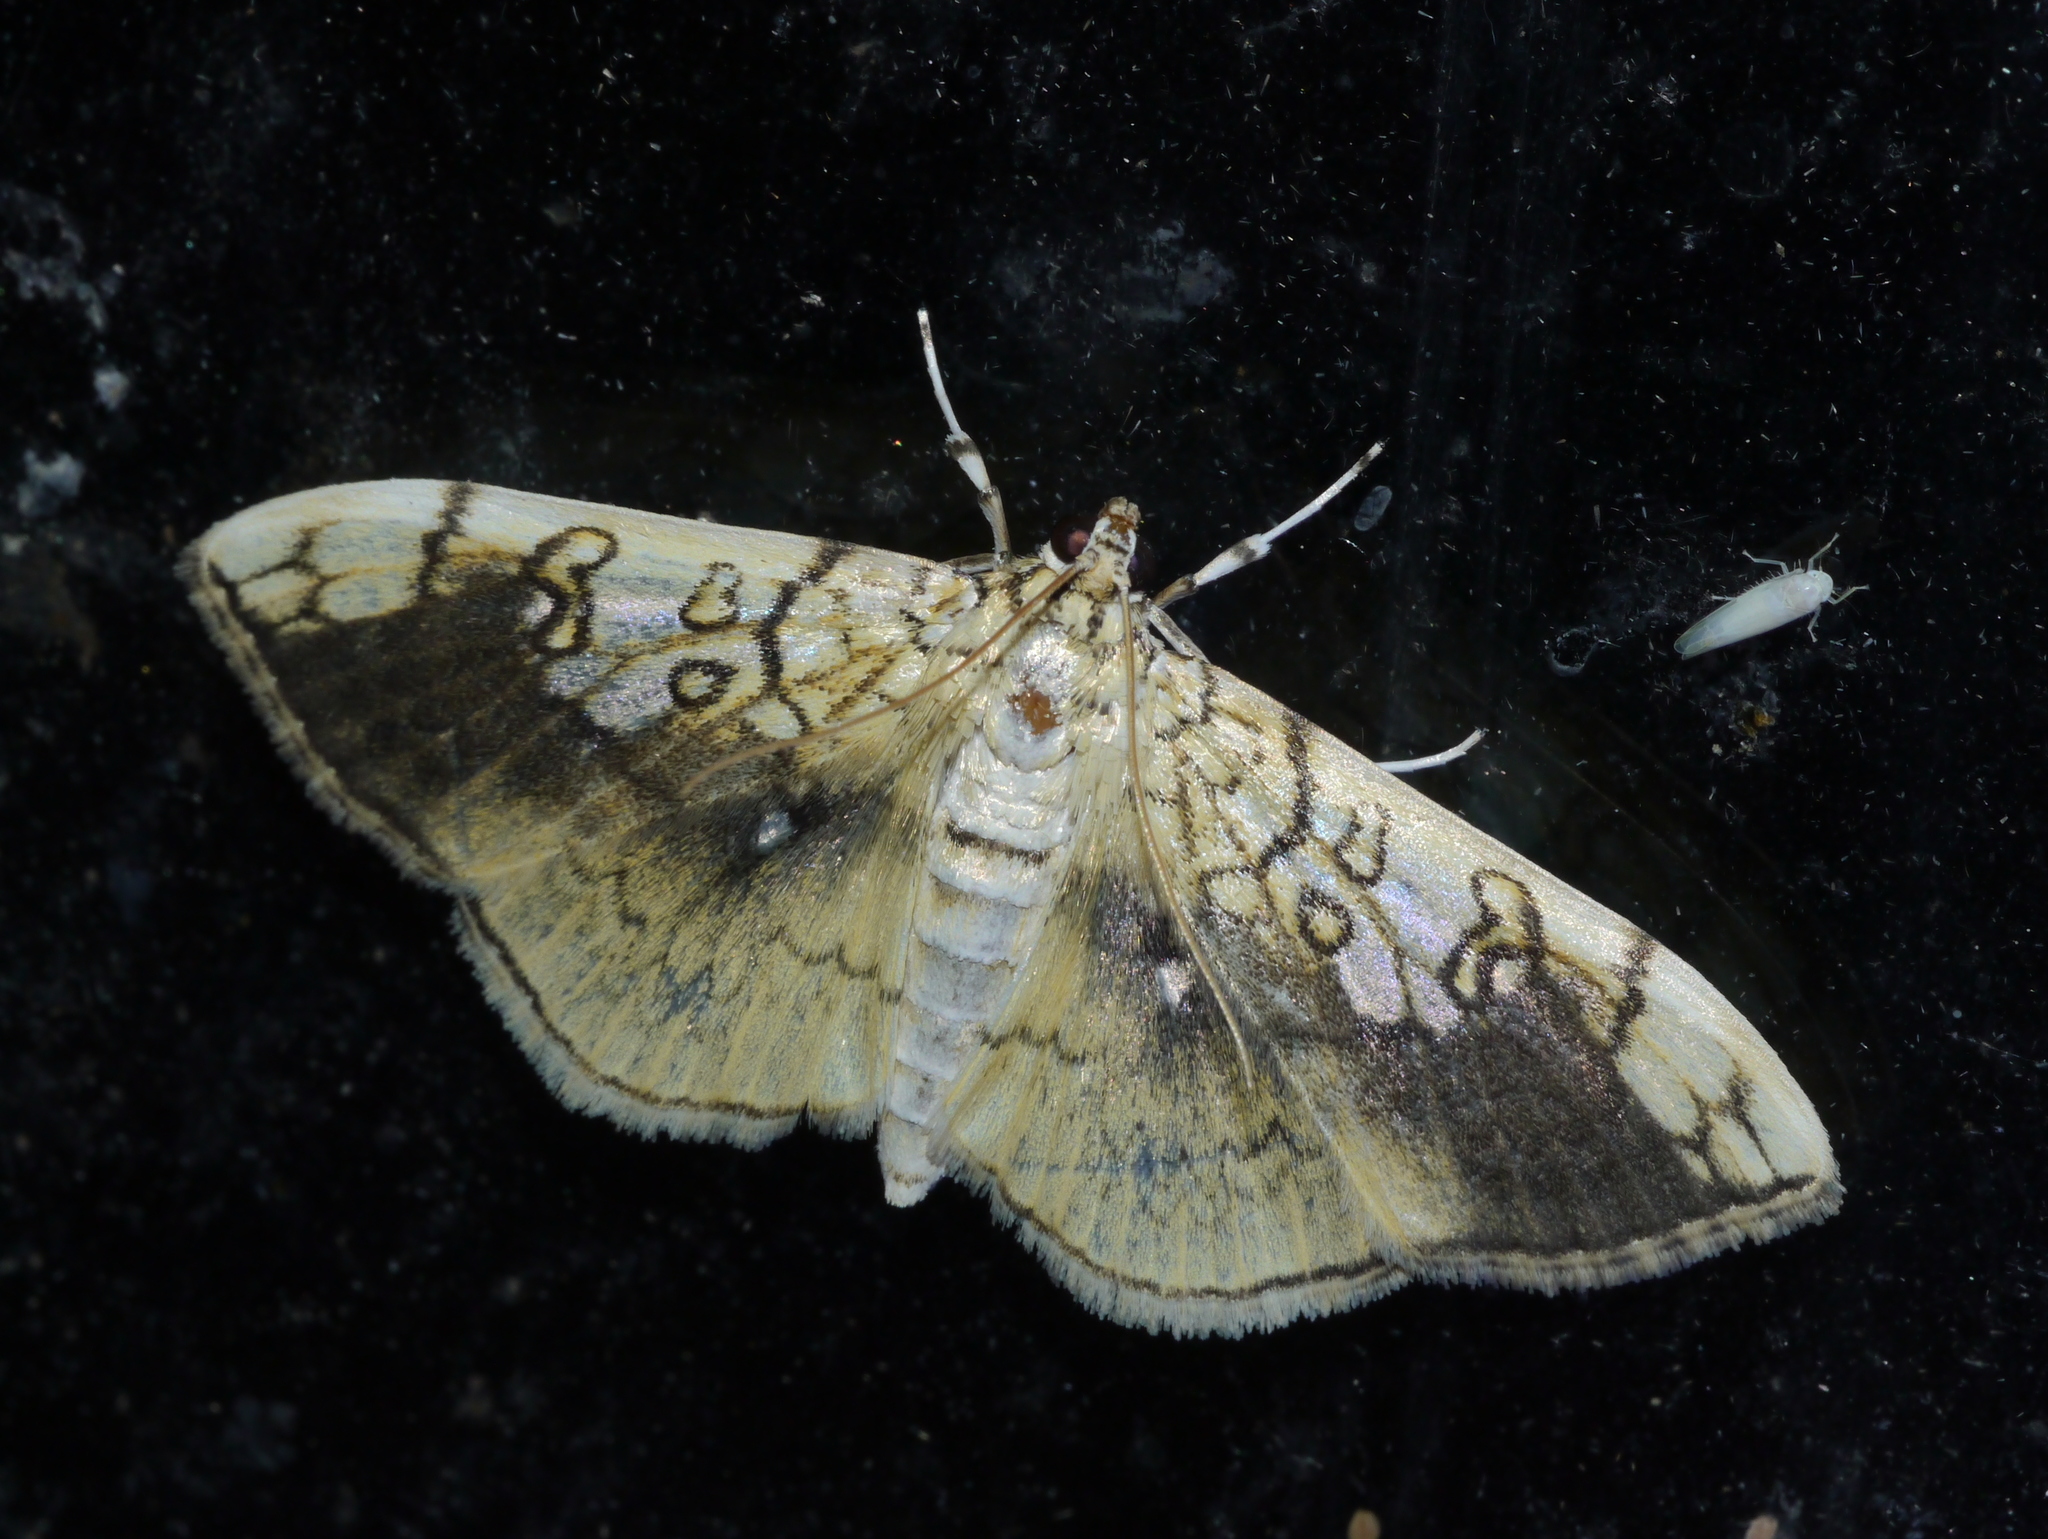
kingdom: Animalia
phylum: Arthropoda
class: Insecta
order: Lepidoptera
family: Crambidae
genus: Pantographa
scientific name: Pantographa limata
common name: Basswood leafroller moth
